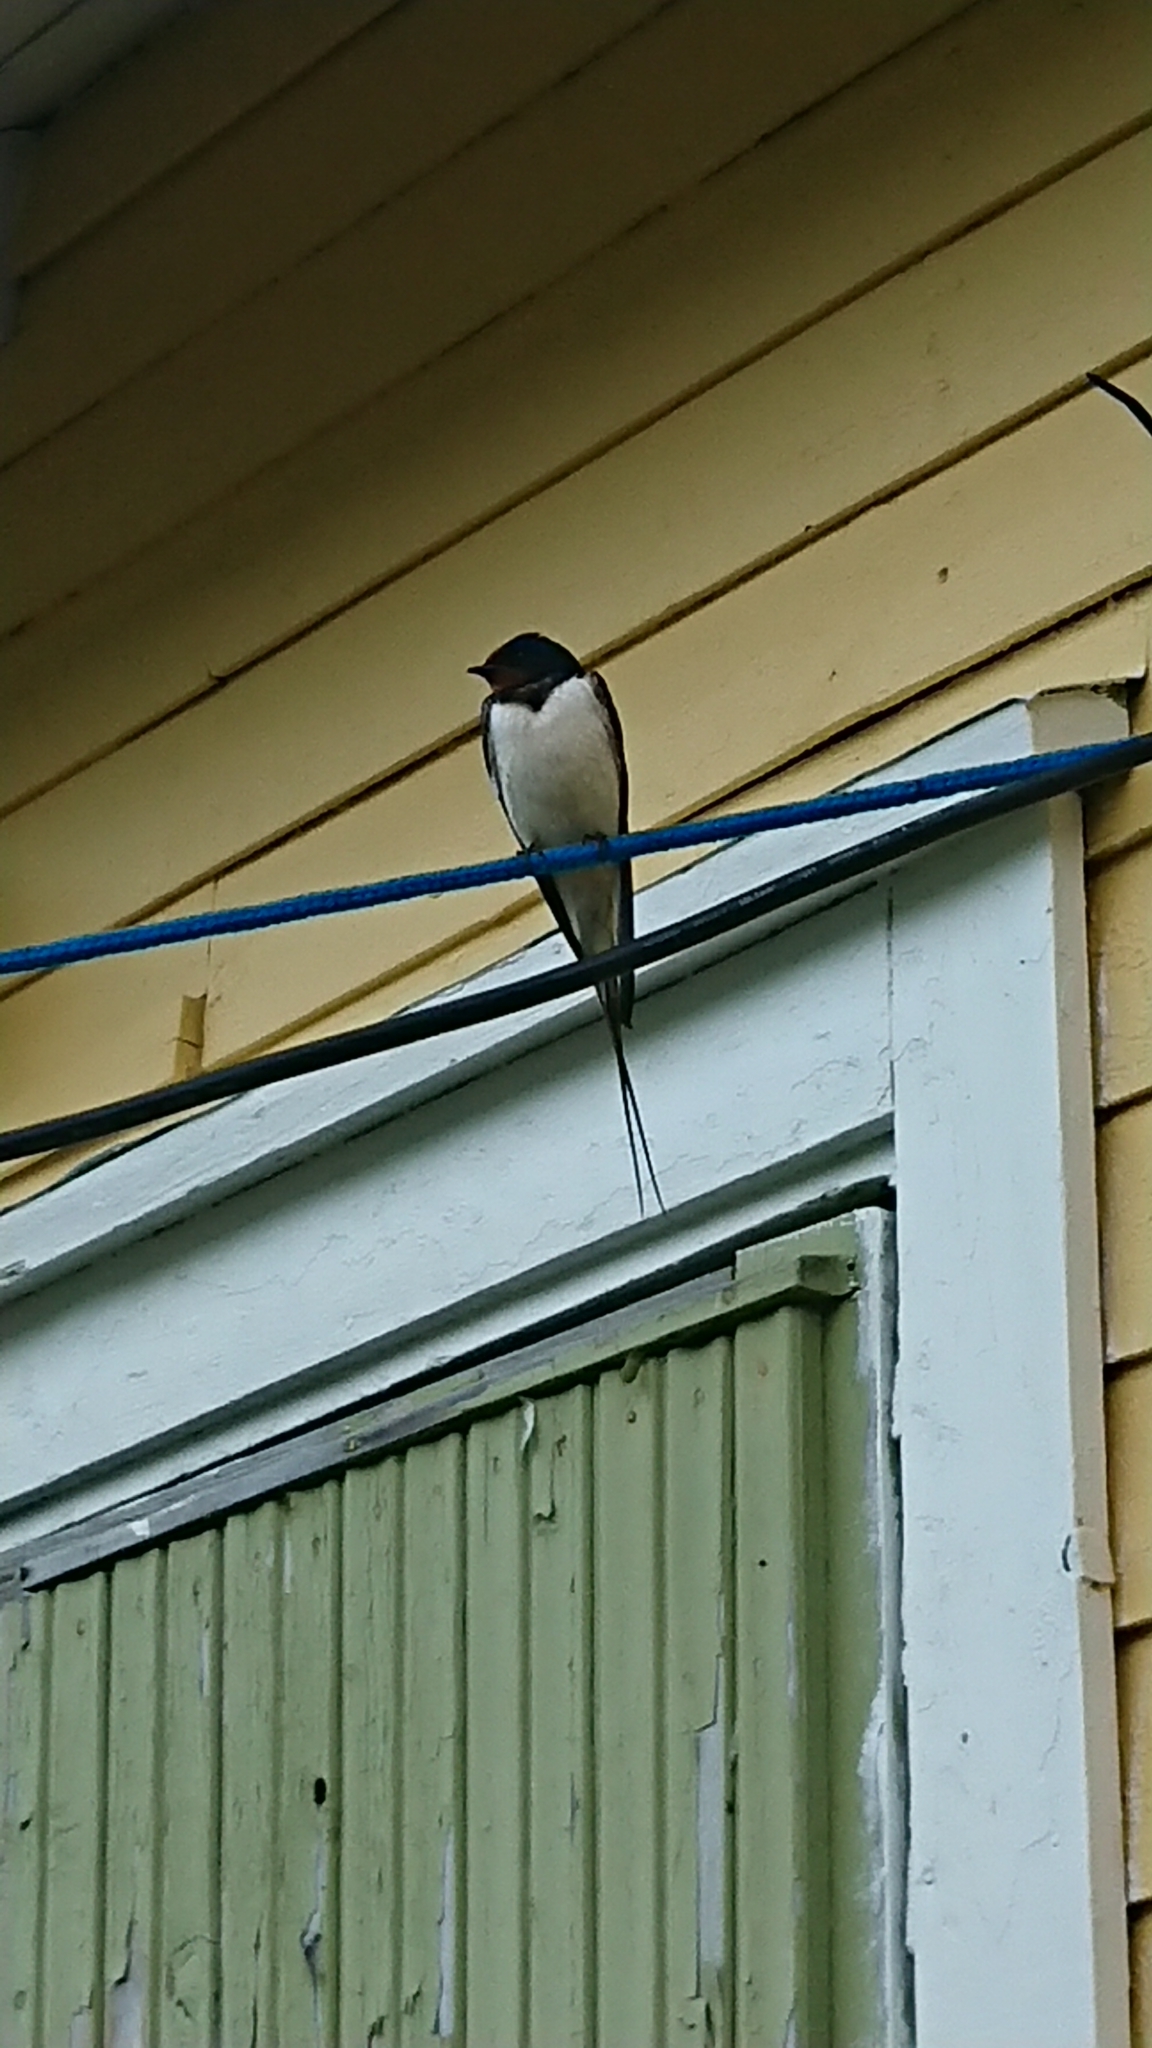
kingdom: Animalia
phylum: Chordata
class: Aves
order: Passeriformes
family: Hirundinidae
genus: Hirundo
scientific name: Hirundo rustica
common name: Barn swallow
